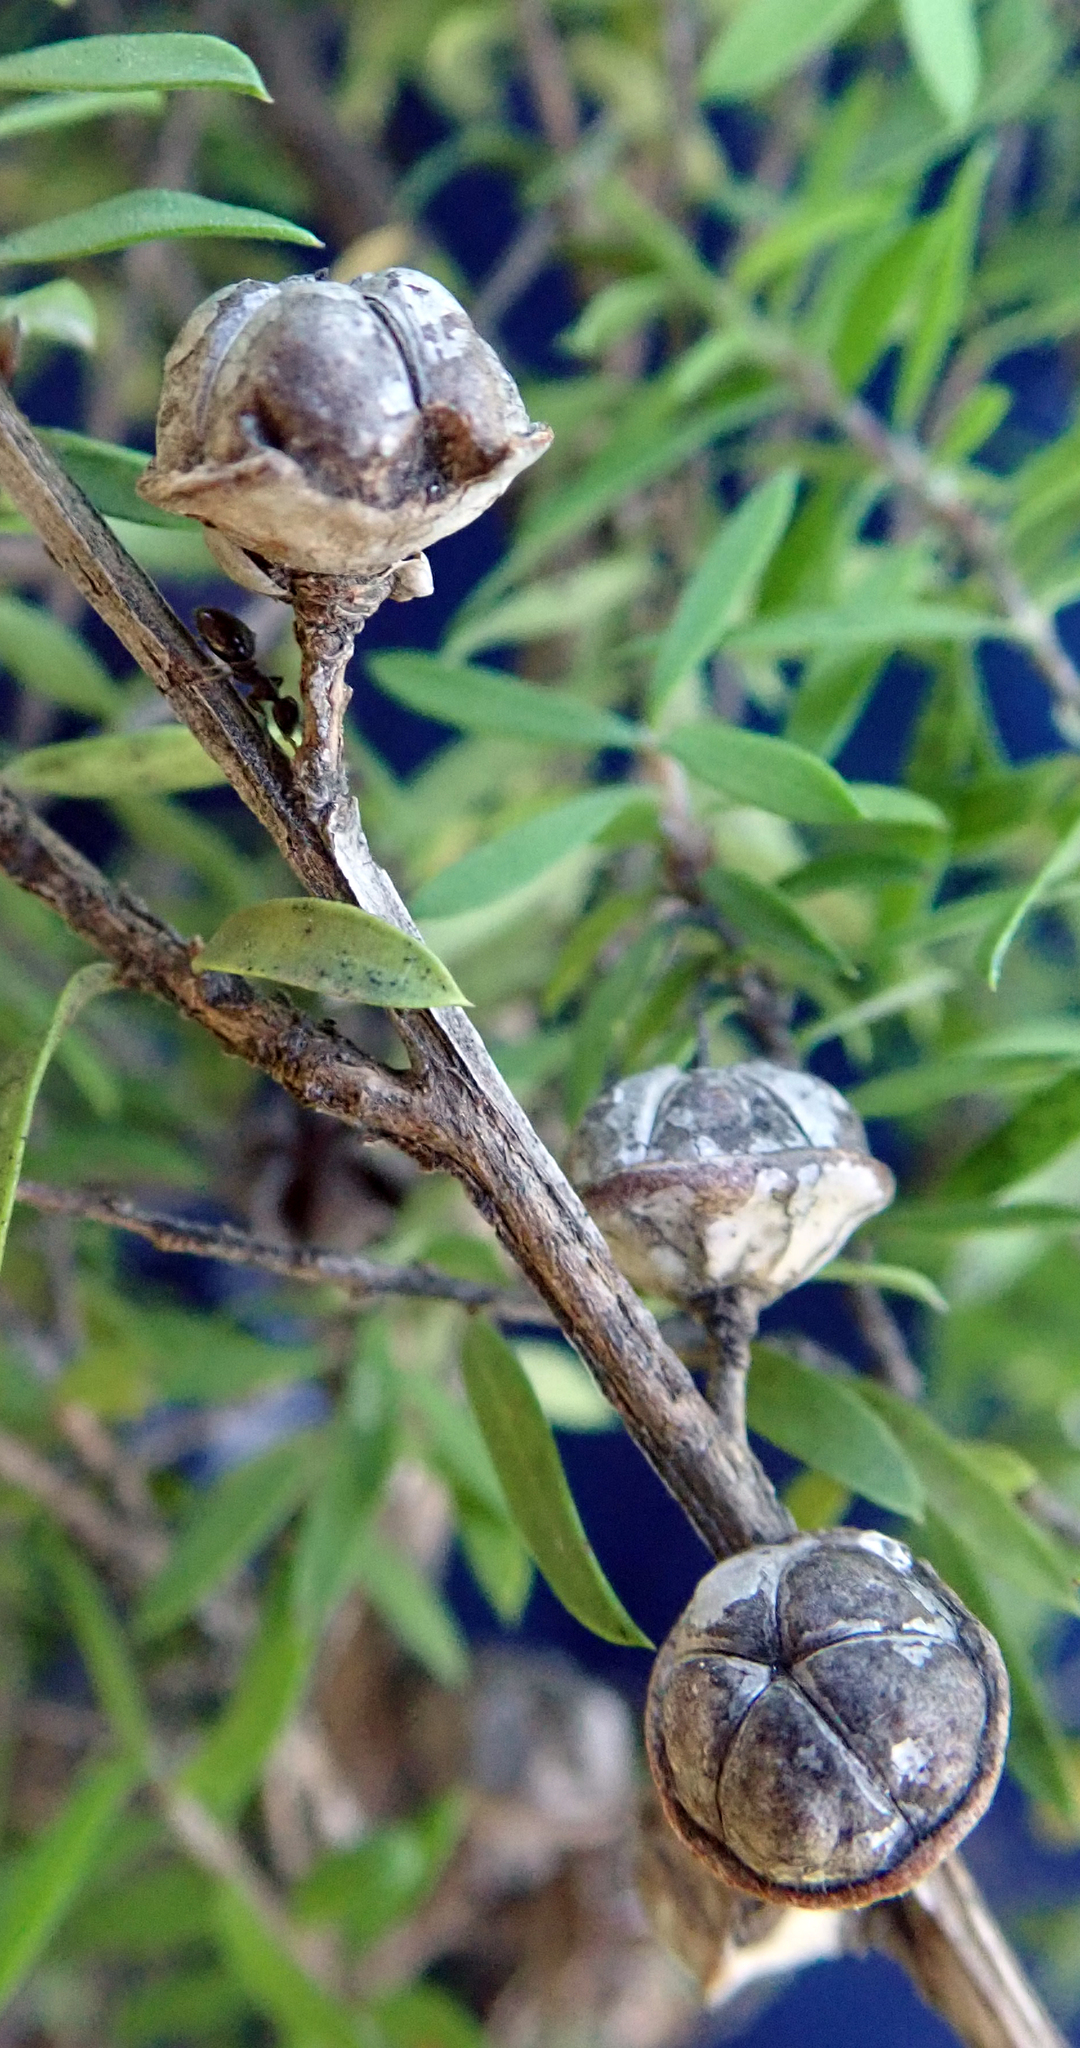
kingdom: Plantae
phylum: Tracheophyta
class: Magnoliopsida
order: Myrtales
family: Myrtaceae
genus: Leptospermum
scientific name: Leptospermum scoparium
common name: Broom tea-tree
